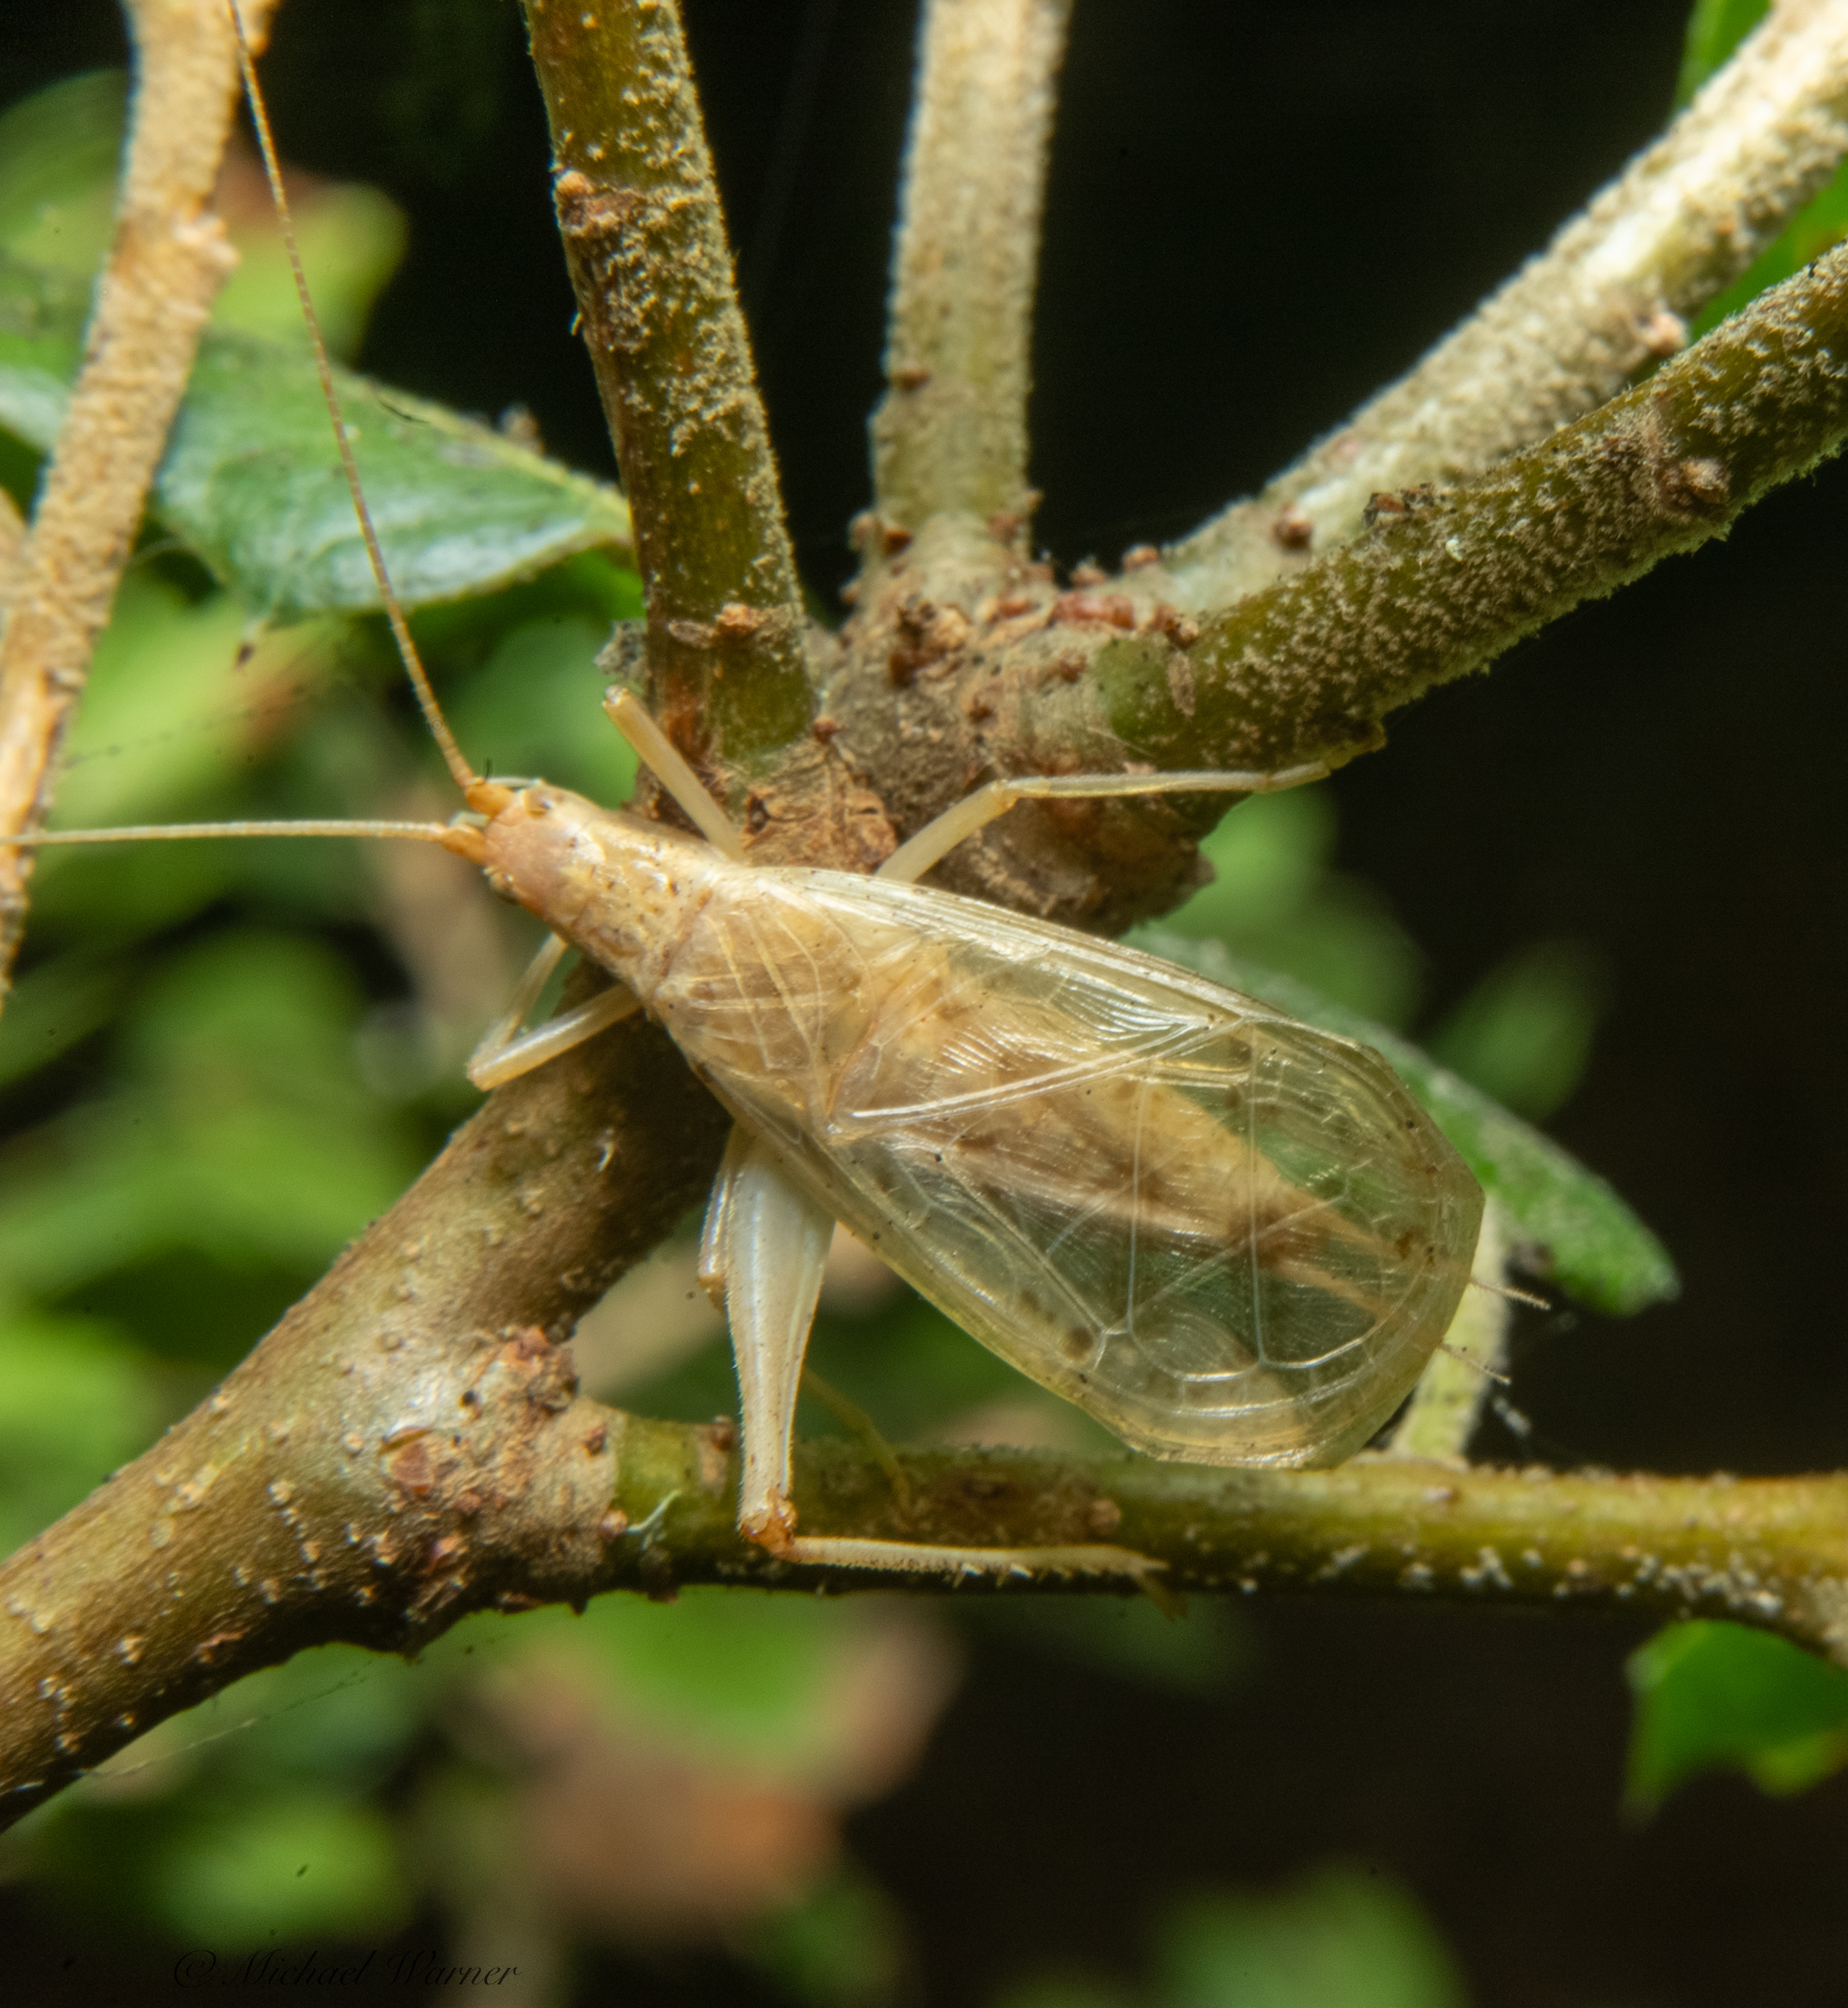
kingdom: Animalia
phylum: Arthropoda
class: Insecta
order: Orthoptera
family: Gryllidae
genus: Oecanthus
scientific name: Oecanthus californicus
